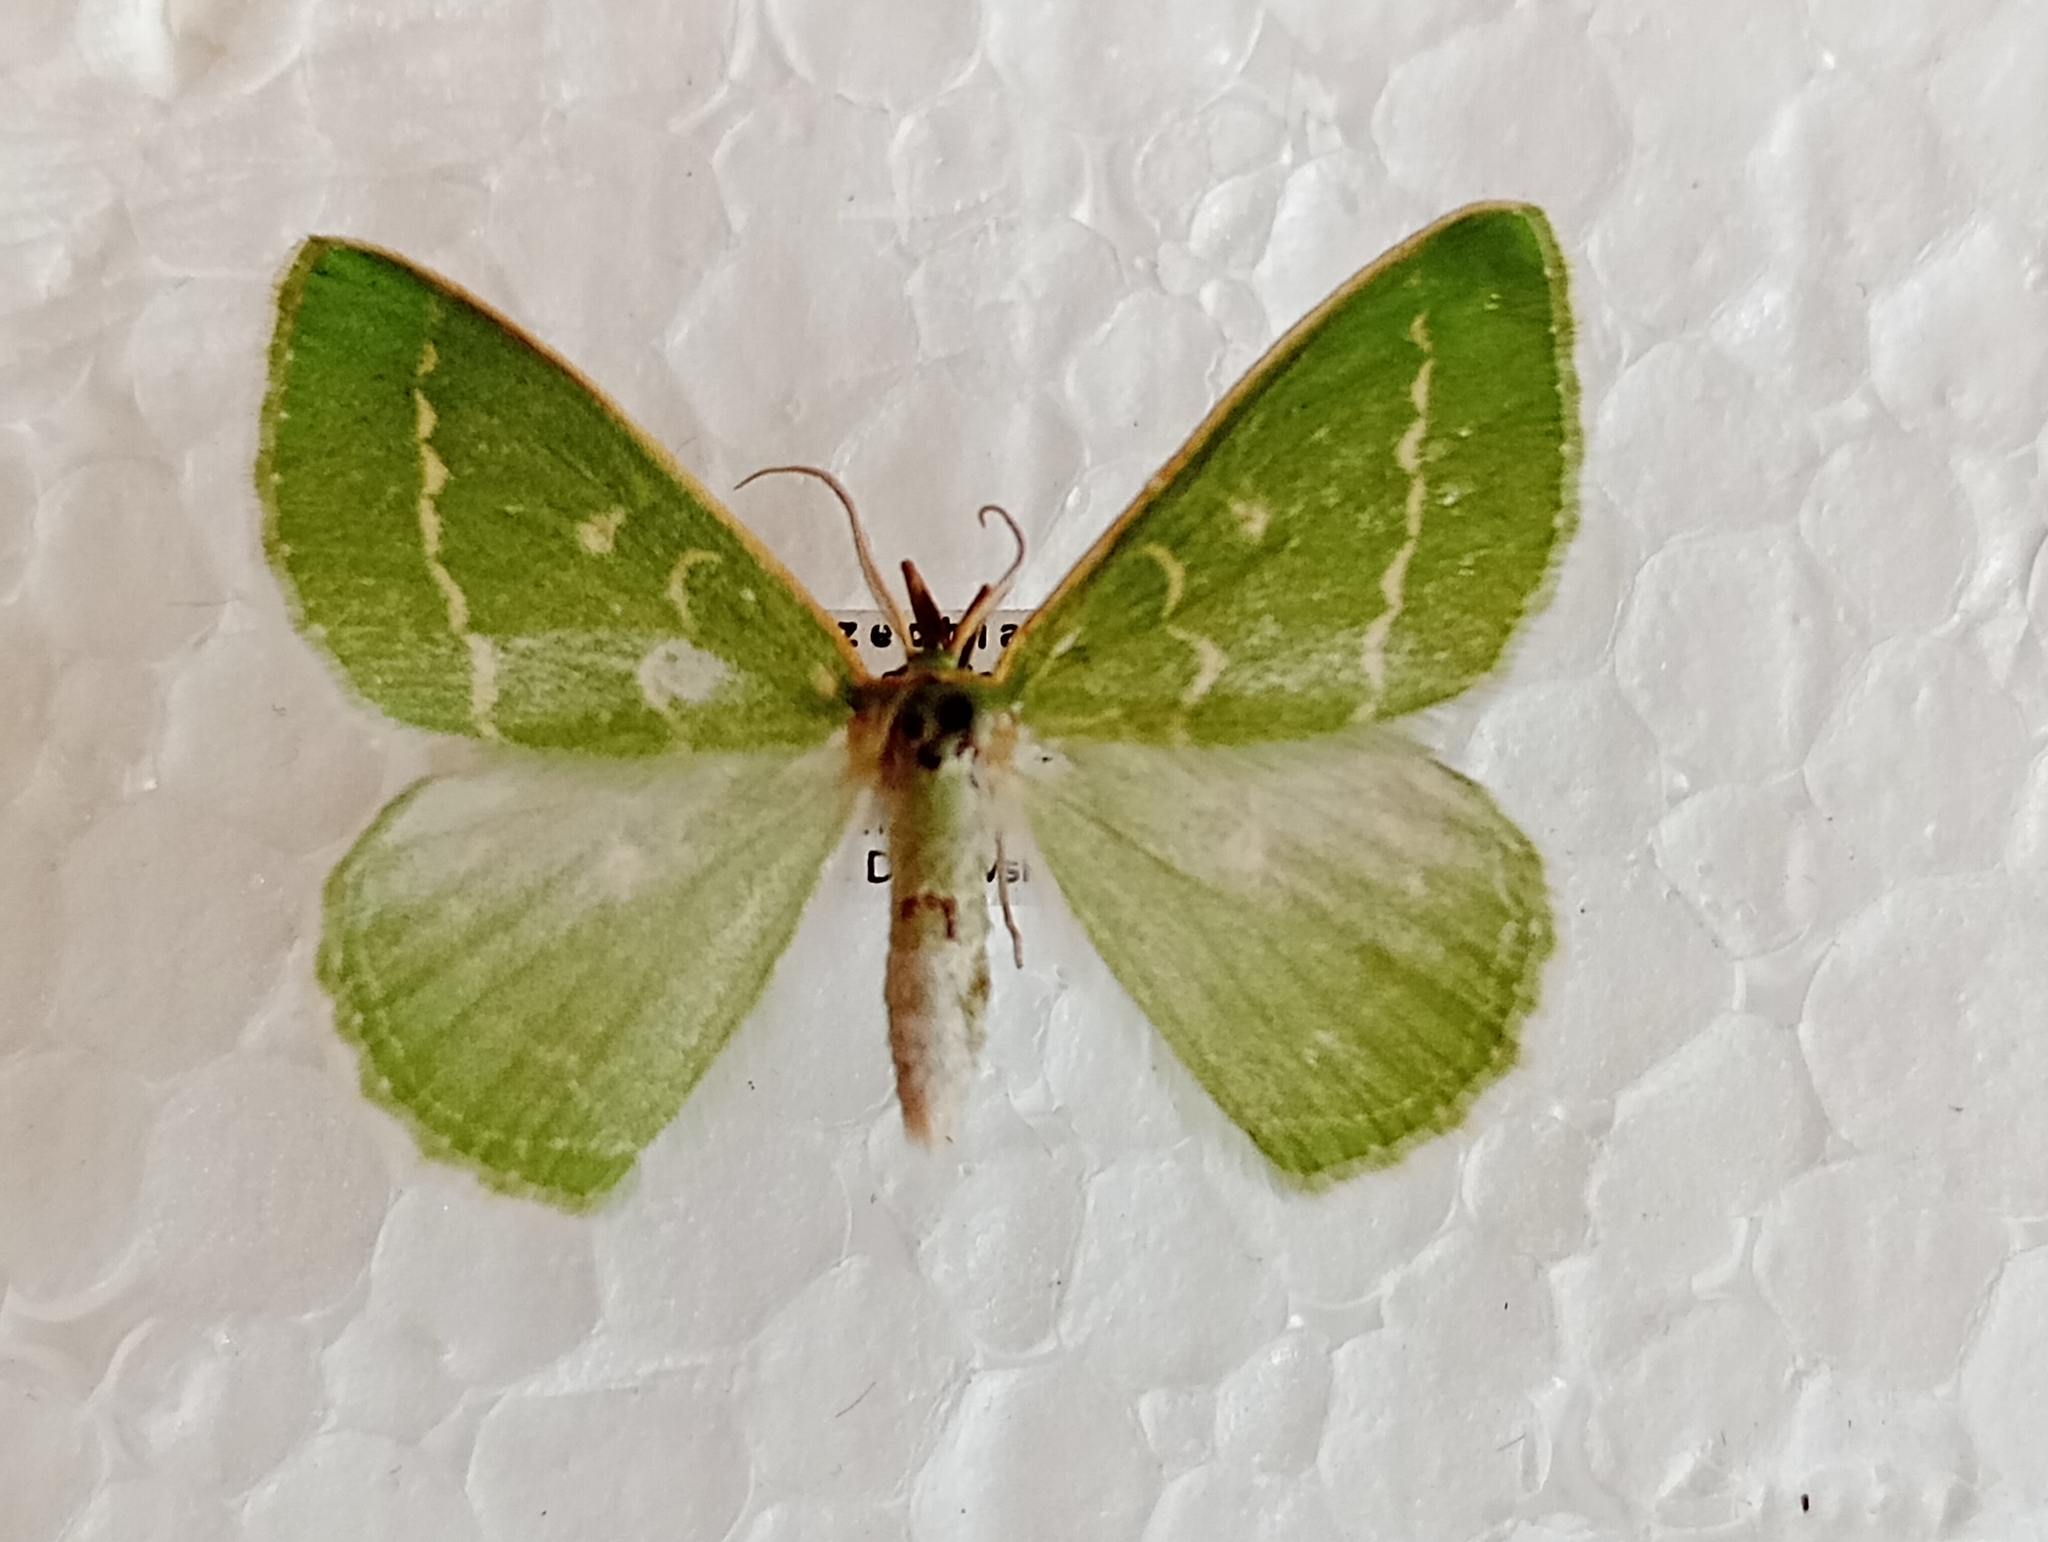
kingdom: Animalia
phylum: Arthropoda
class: Insecta
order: Lepidoptera
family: Geometridae
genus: Thetidia
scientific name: Thetidia smaragdaria
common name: Essex emerald
